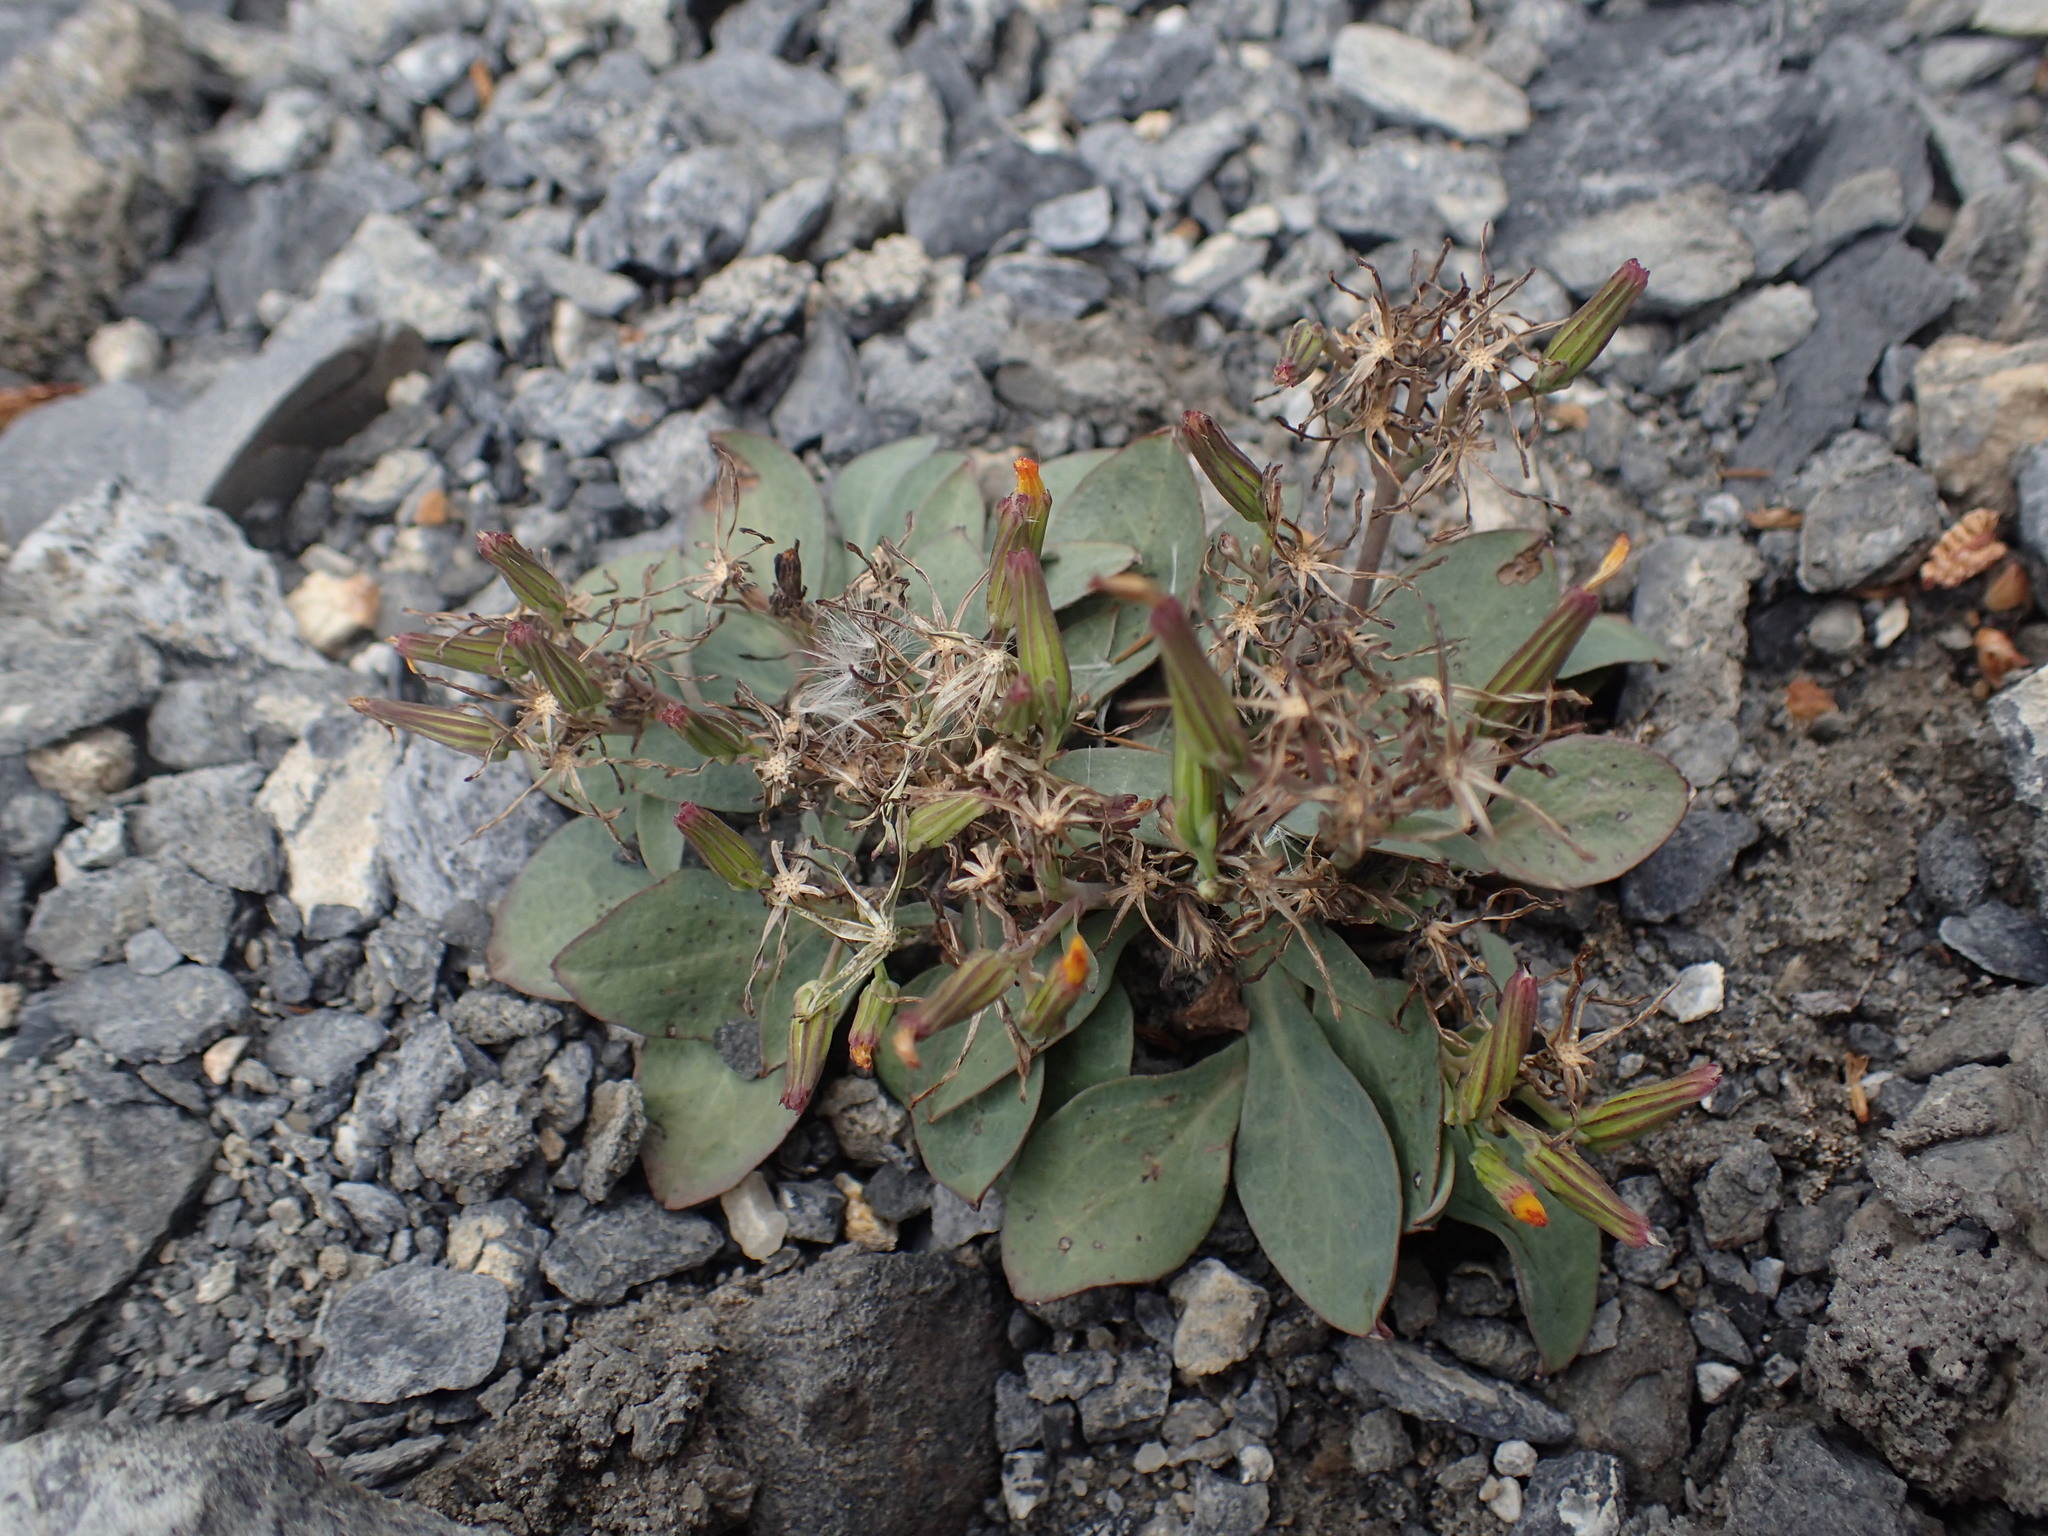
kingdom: Plantae
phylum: Tracheophyta
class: Magnoliopsida
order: Asterales
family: Asteraceae
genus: Askellia
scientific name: Askellia pygmaea
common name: Dwarf alpine hawksbeard
